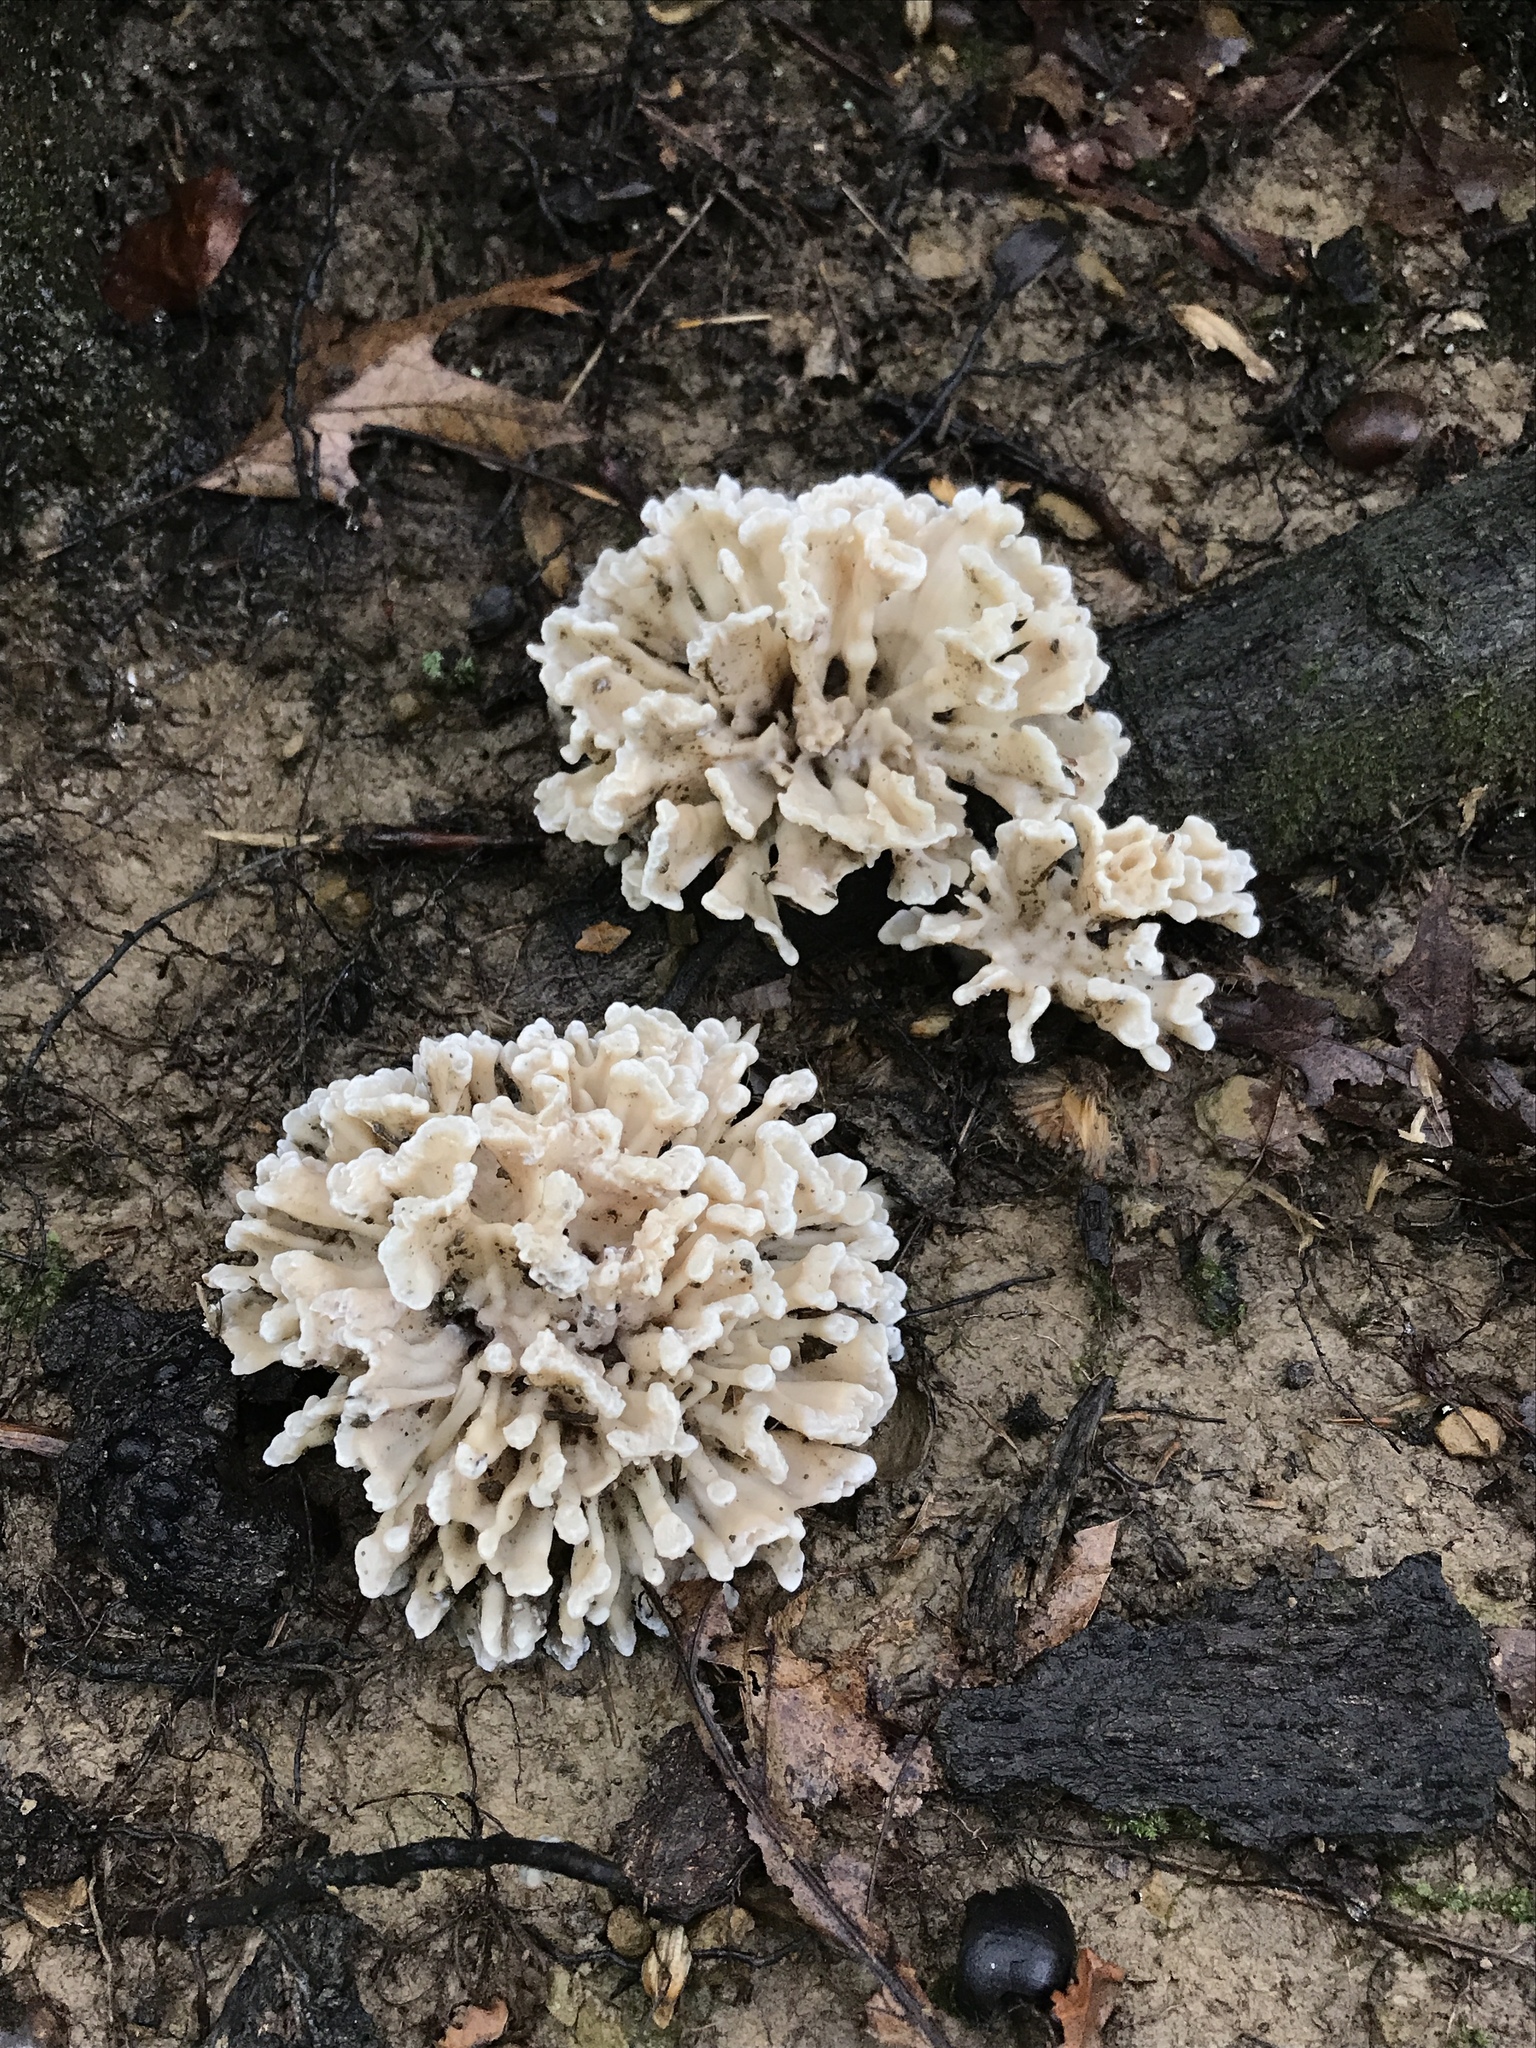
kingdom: Fungi
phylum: Basidiomycota
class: Agaricomycetes
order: Polyporales
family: Sparassidaceae
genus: Sparassis
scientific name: Sparassis spathulata
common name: Eastern cauliflower mushroom
